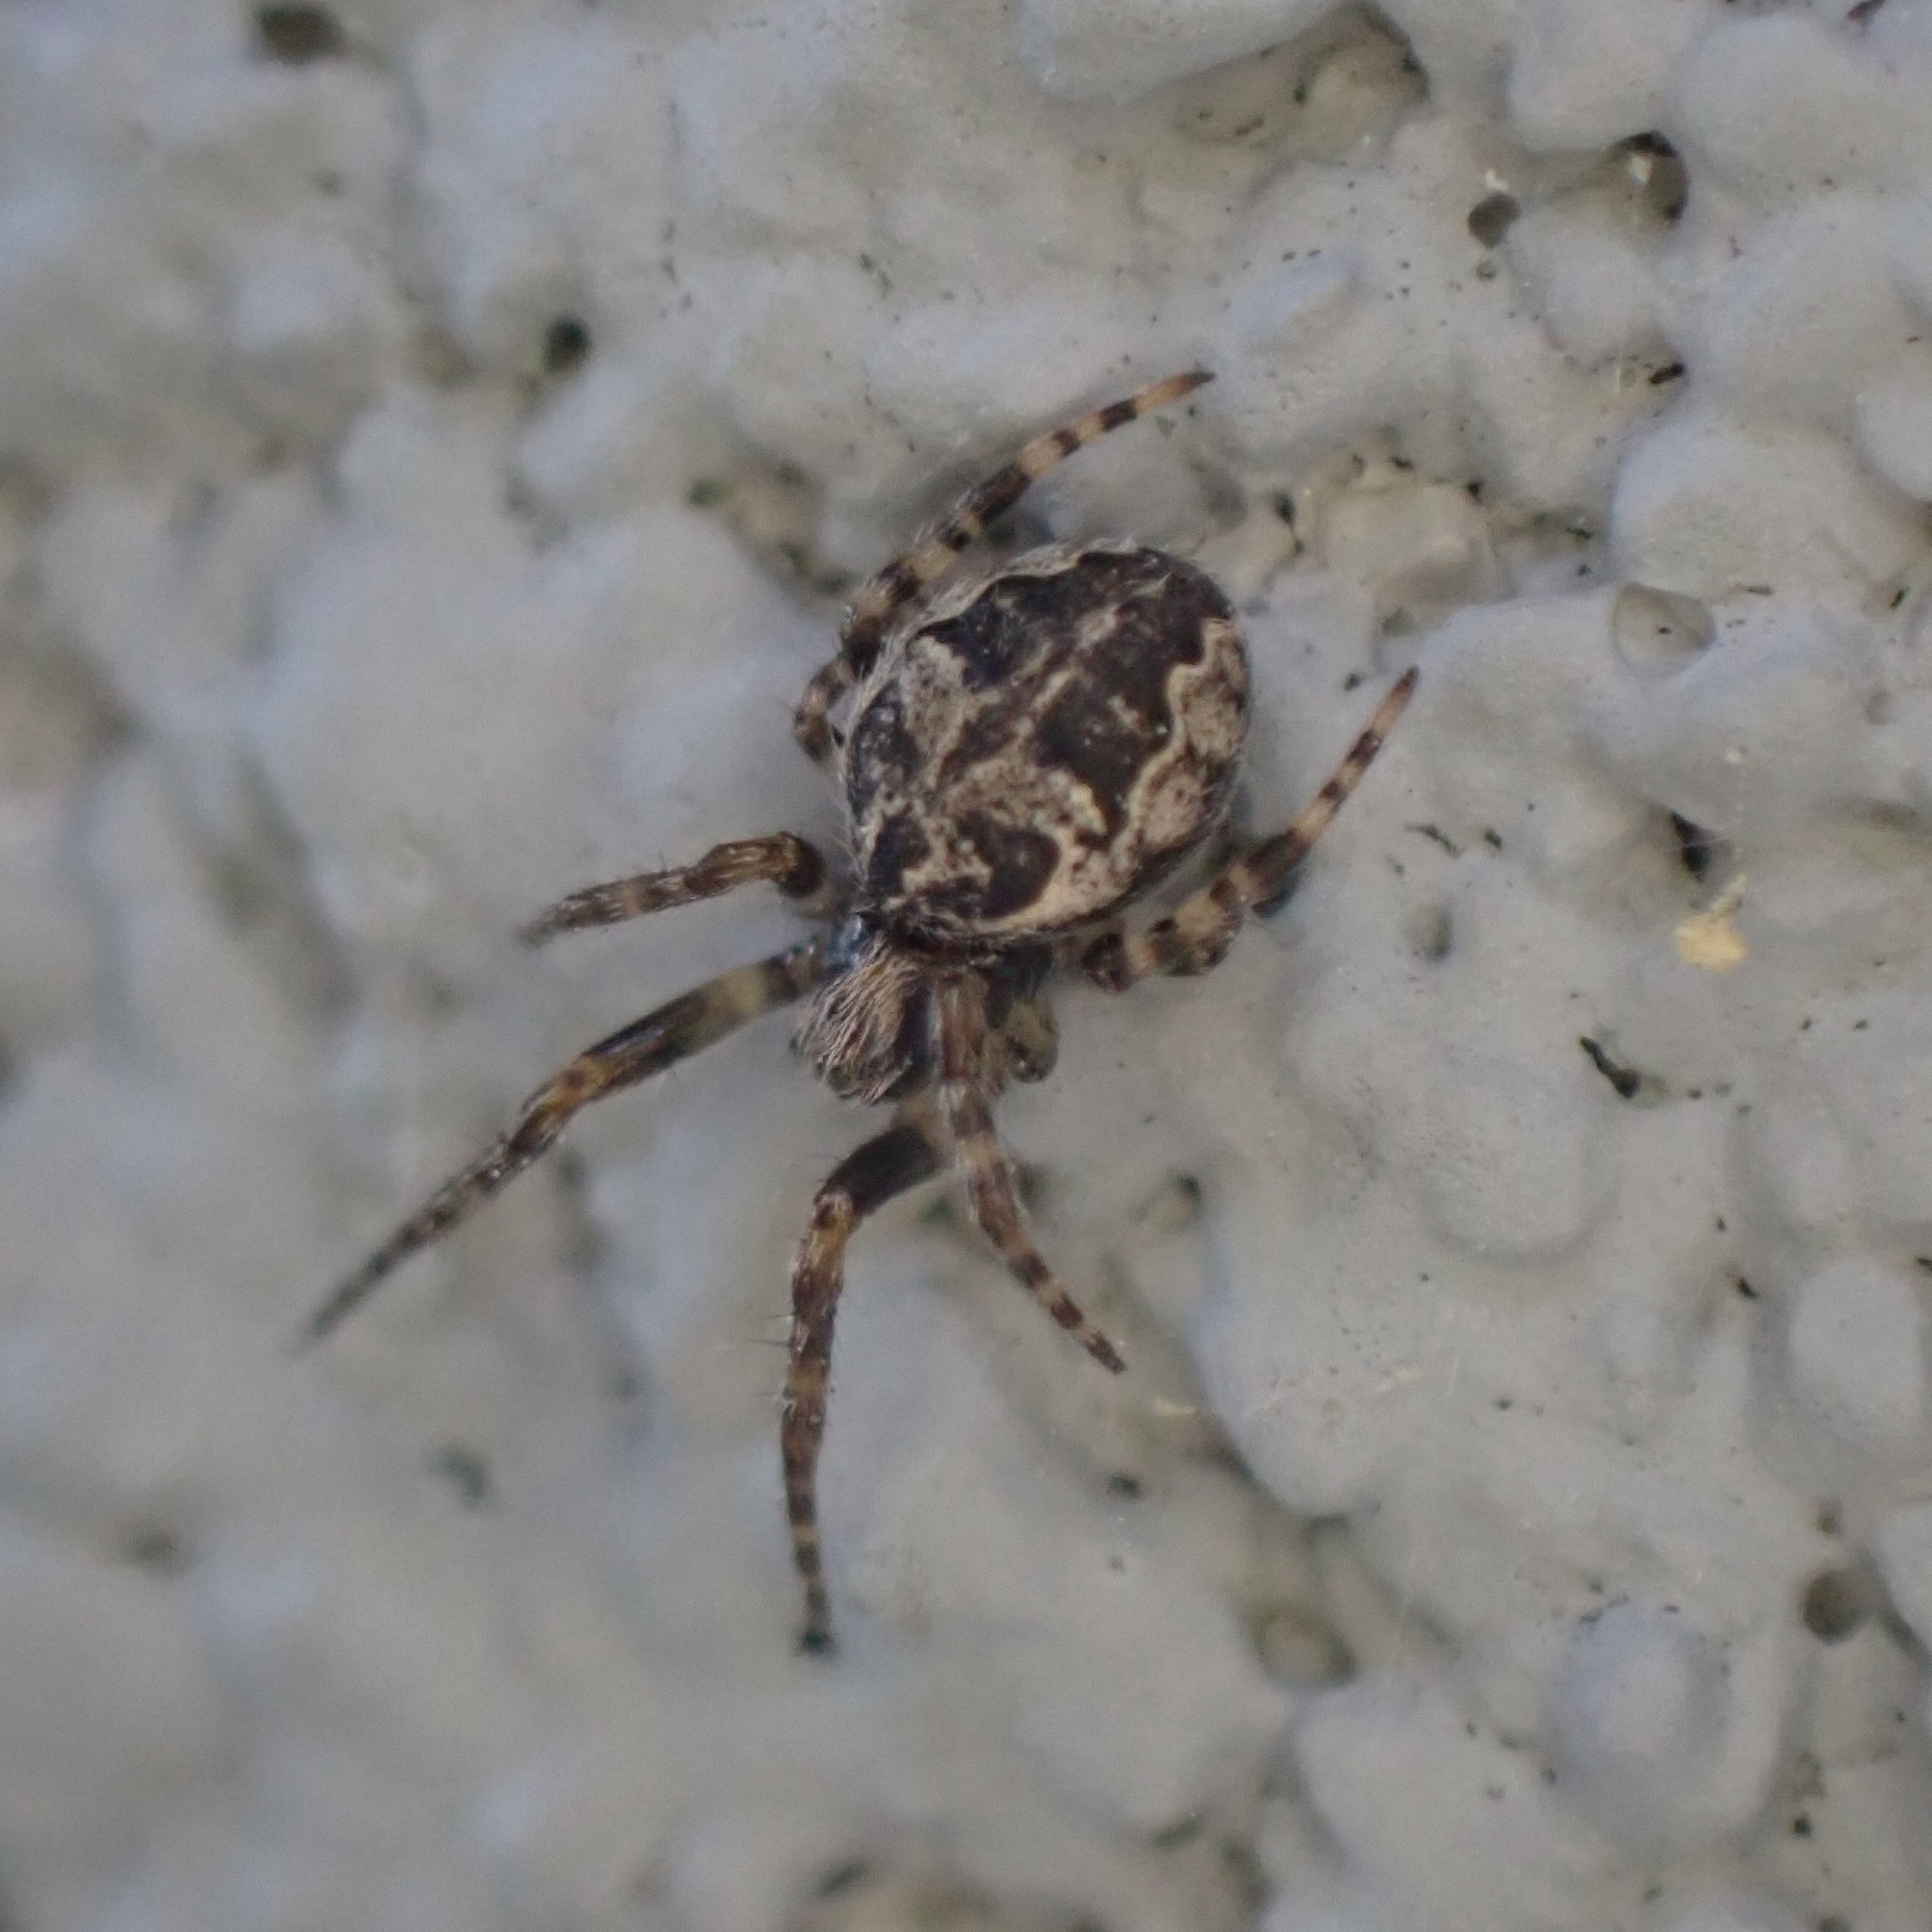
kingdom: Animalia
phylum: Arthropoda
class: Arachnida
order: Araneae
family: Araneidae
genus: Larinioides
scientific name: Larinioides sclopetarius
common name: Bridge orbweaver
